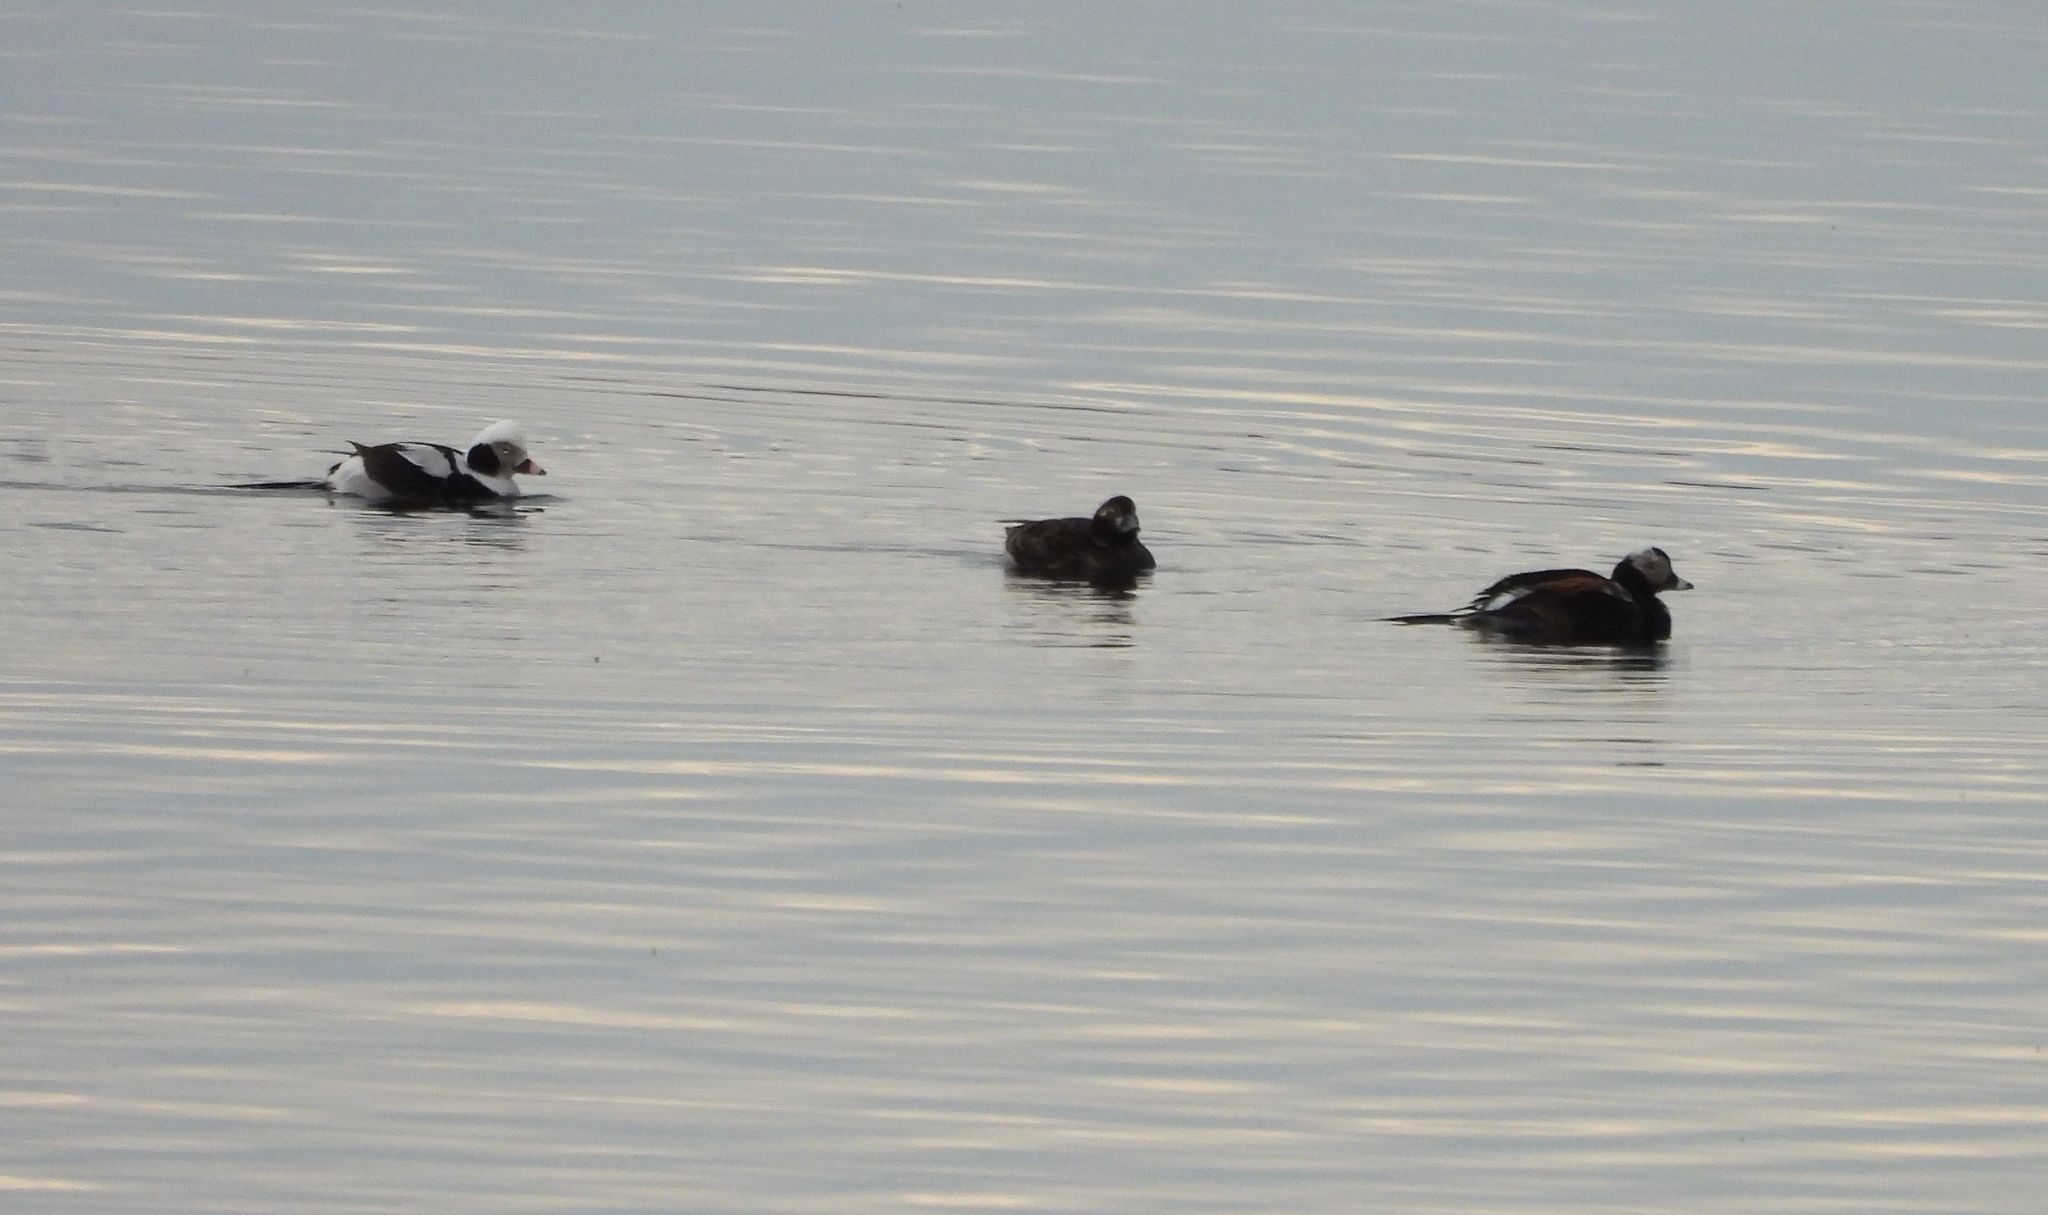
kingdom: Animalia
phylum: Chordata
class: Aves
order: Anseriformes
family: Anatidae
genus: Clangula
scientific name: Clangula hyemalis
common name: Long-tailed duck
